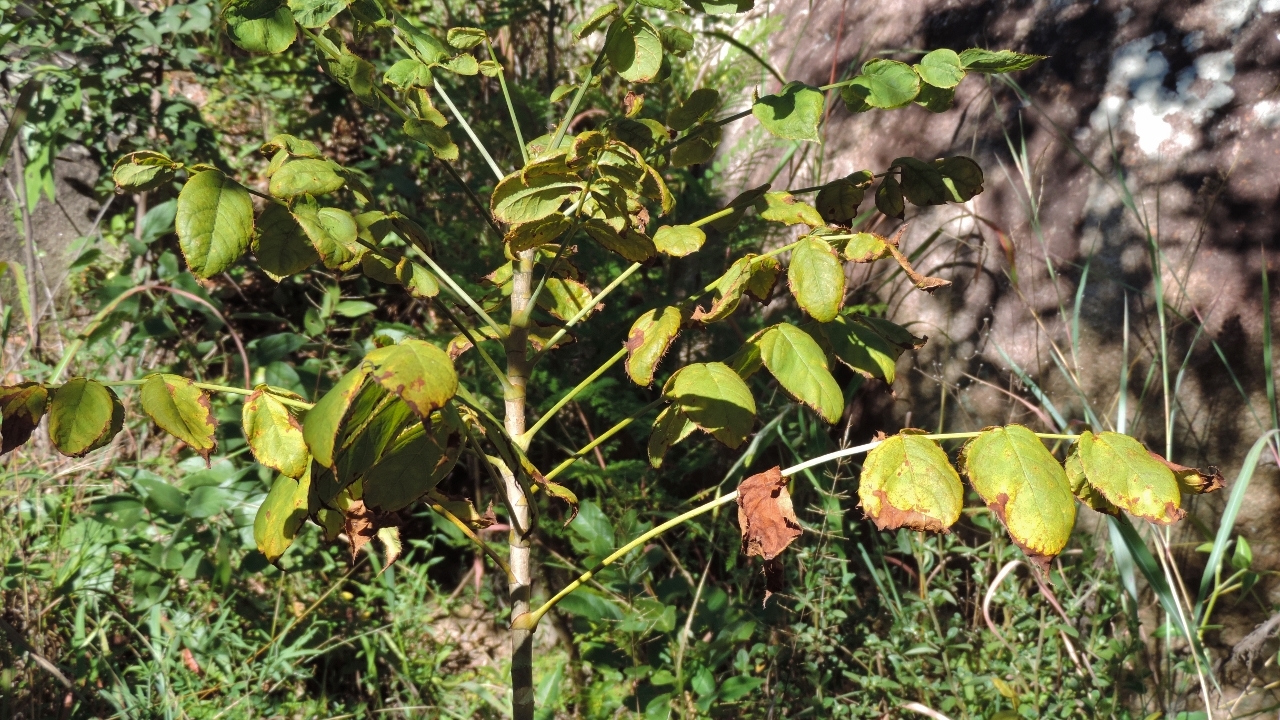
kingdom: Plantae
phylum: Tracheophyta
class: Magnoliopsida
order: Apiales
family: Apiaceae
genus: Steganotaenia
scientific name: Steganotaenia araliacea
